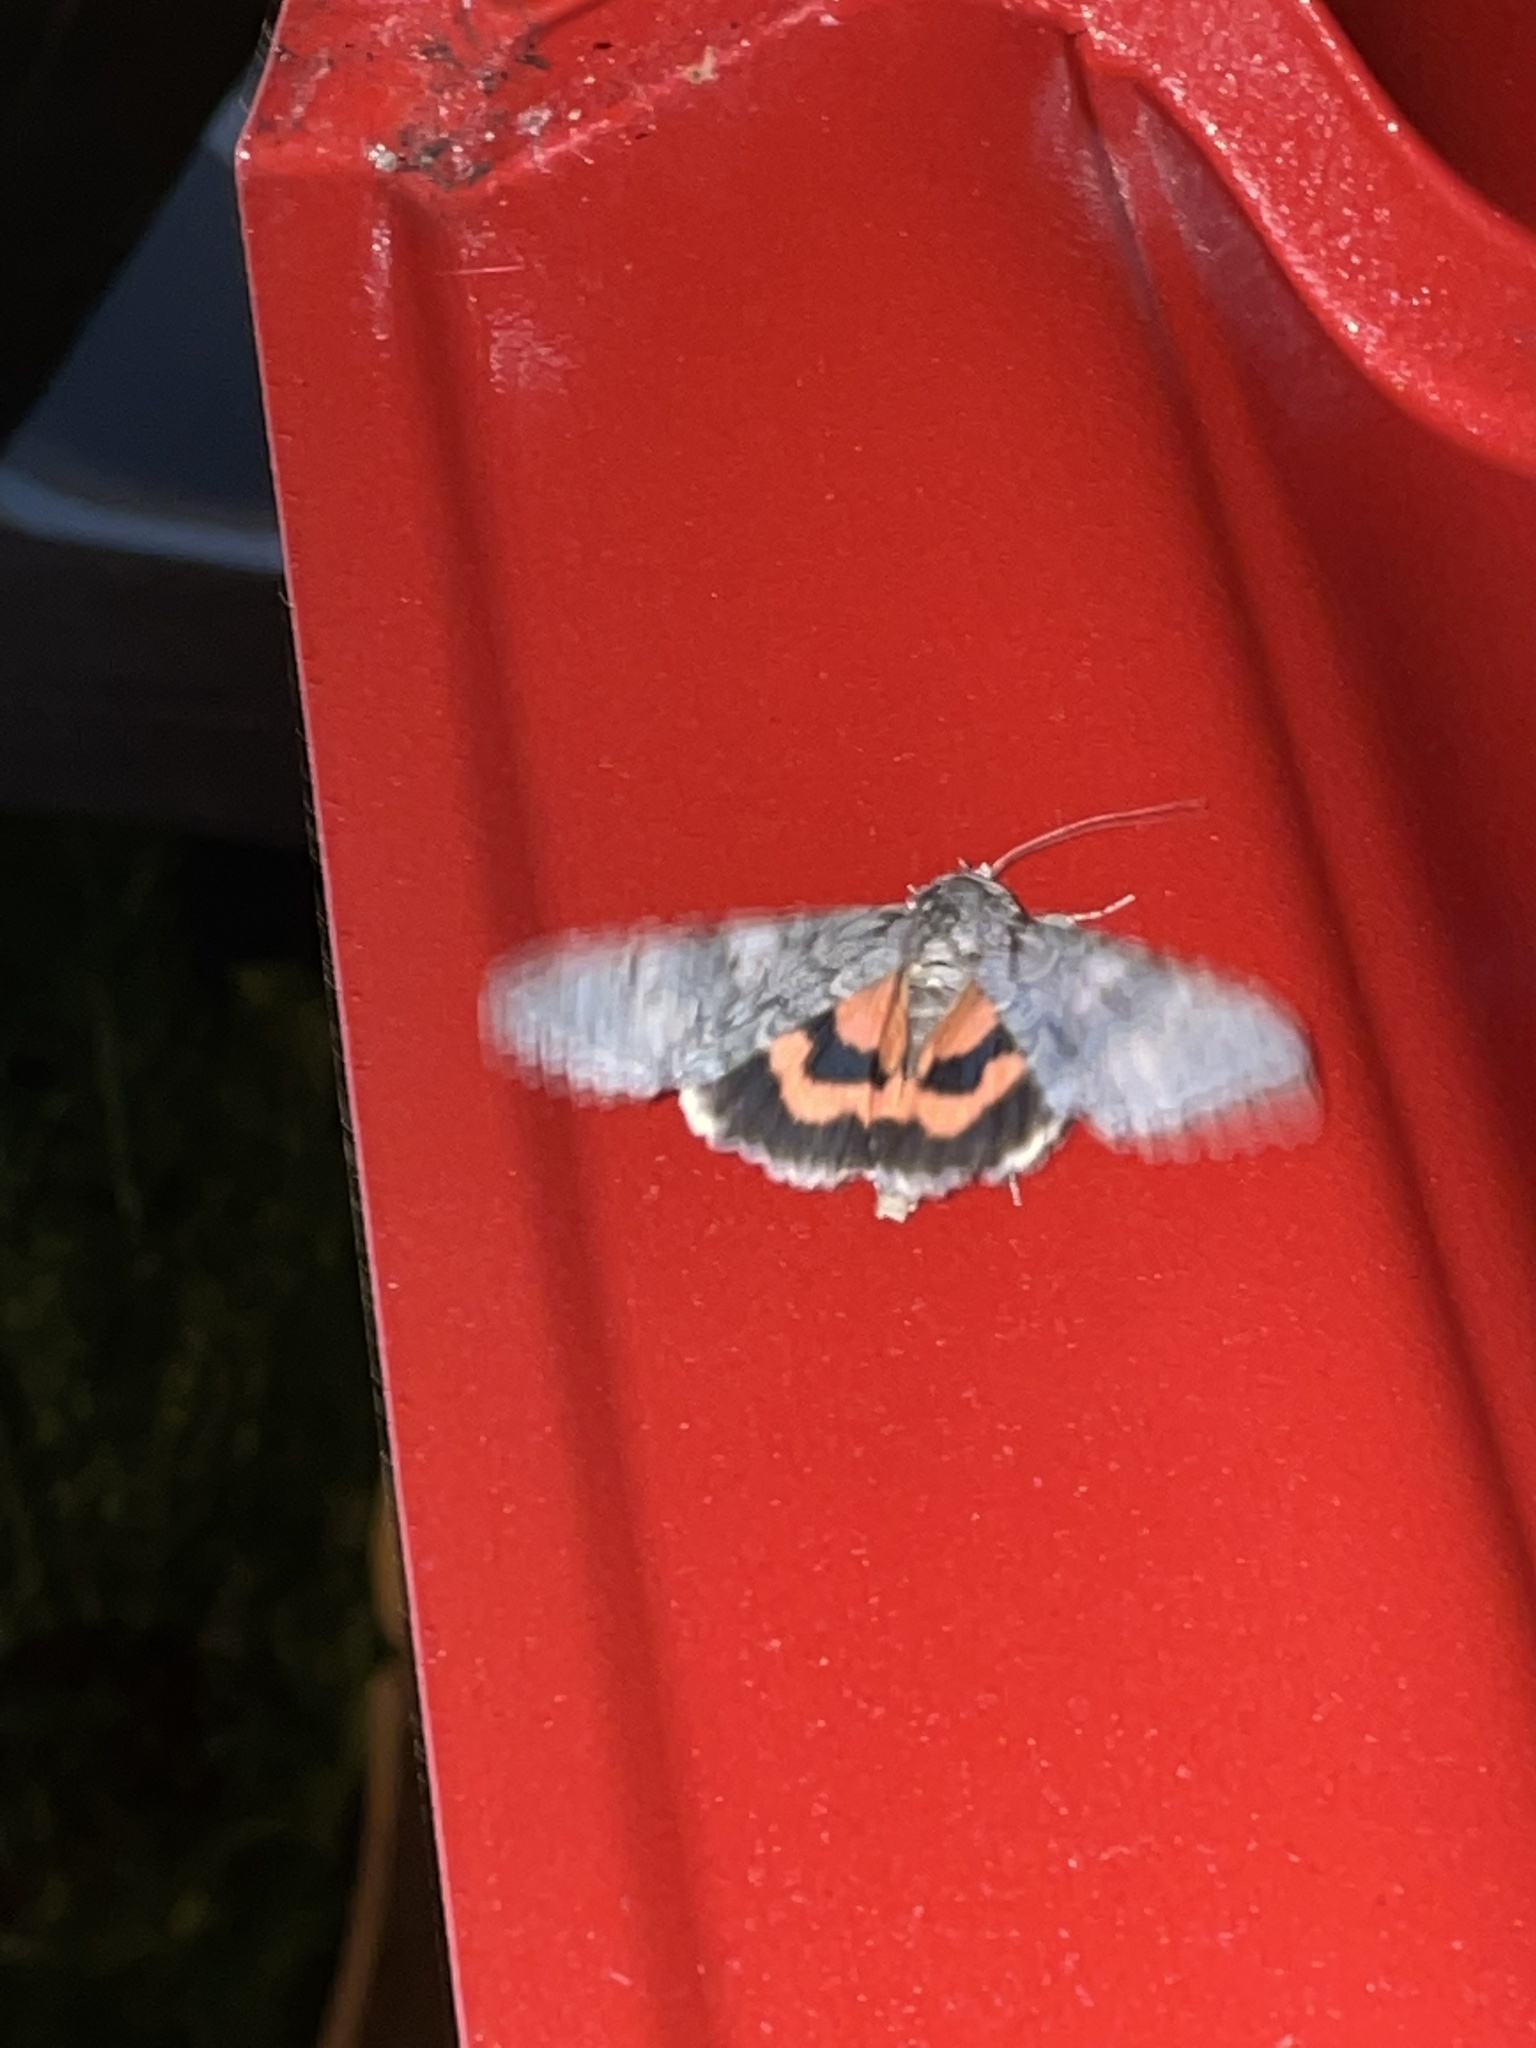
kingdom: Animalia
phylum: Arthropoda
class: Insecta
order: Lepidoptera
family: Erebidae
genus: Catocala
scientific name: Catocala nupta
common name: Red underwing
